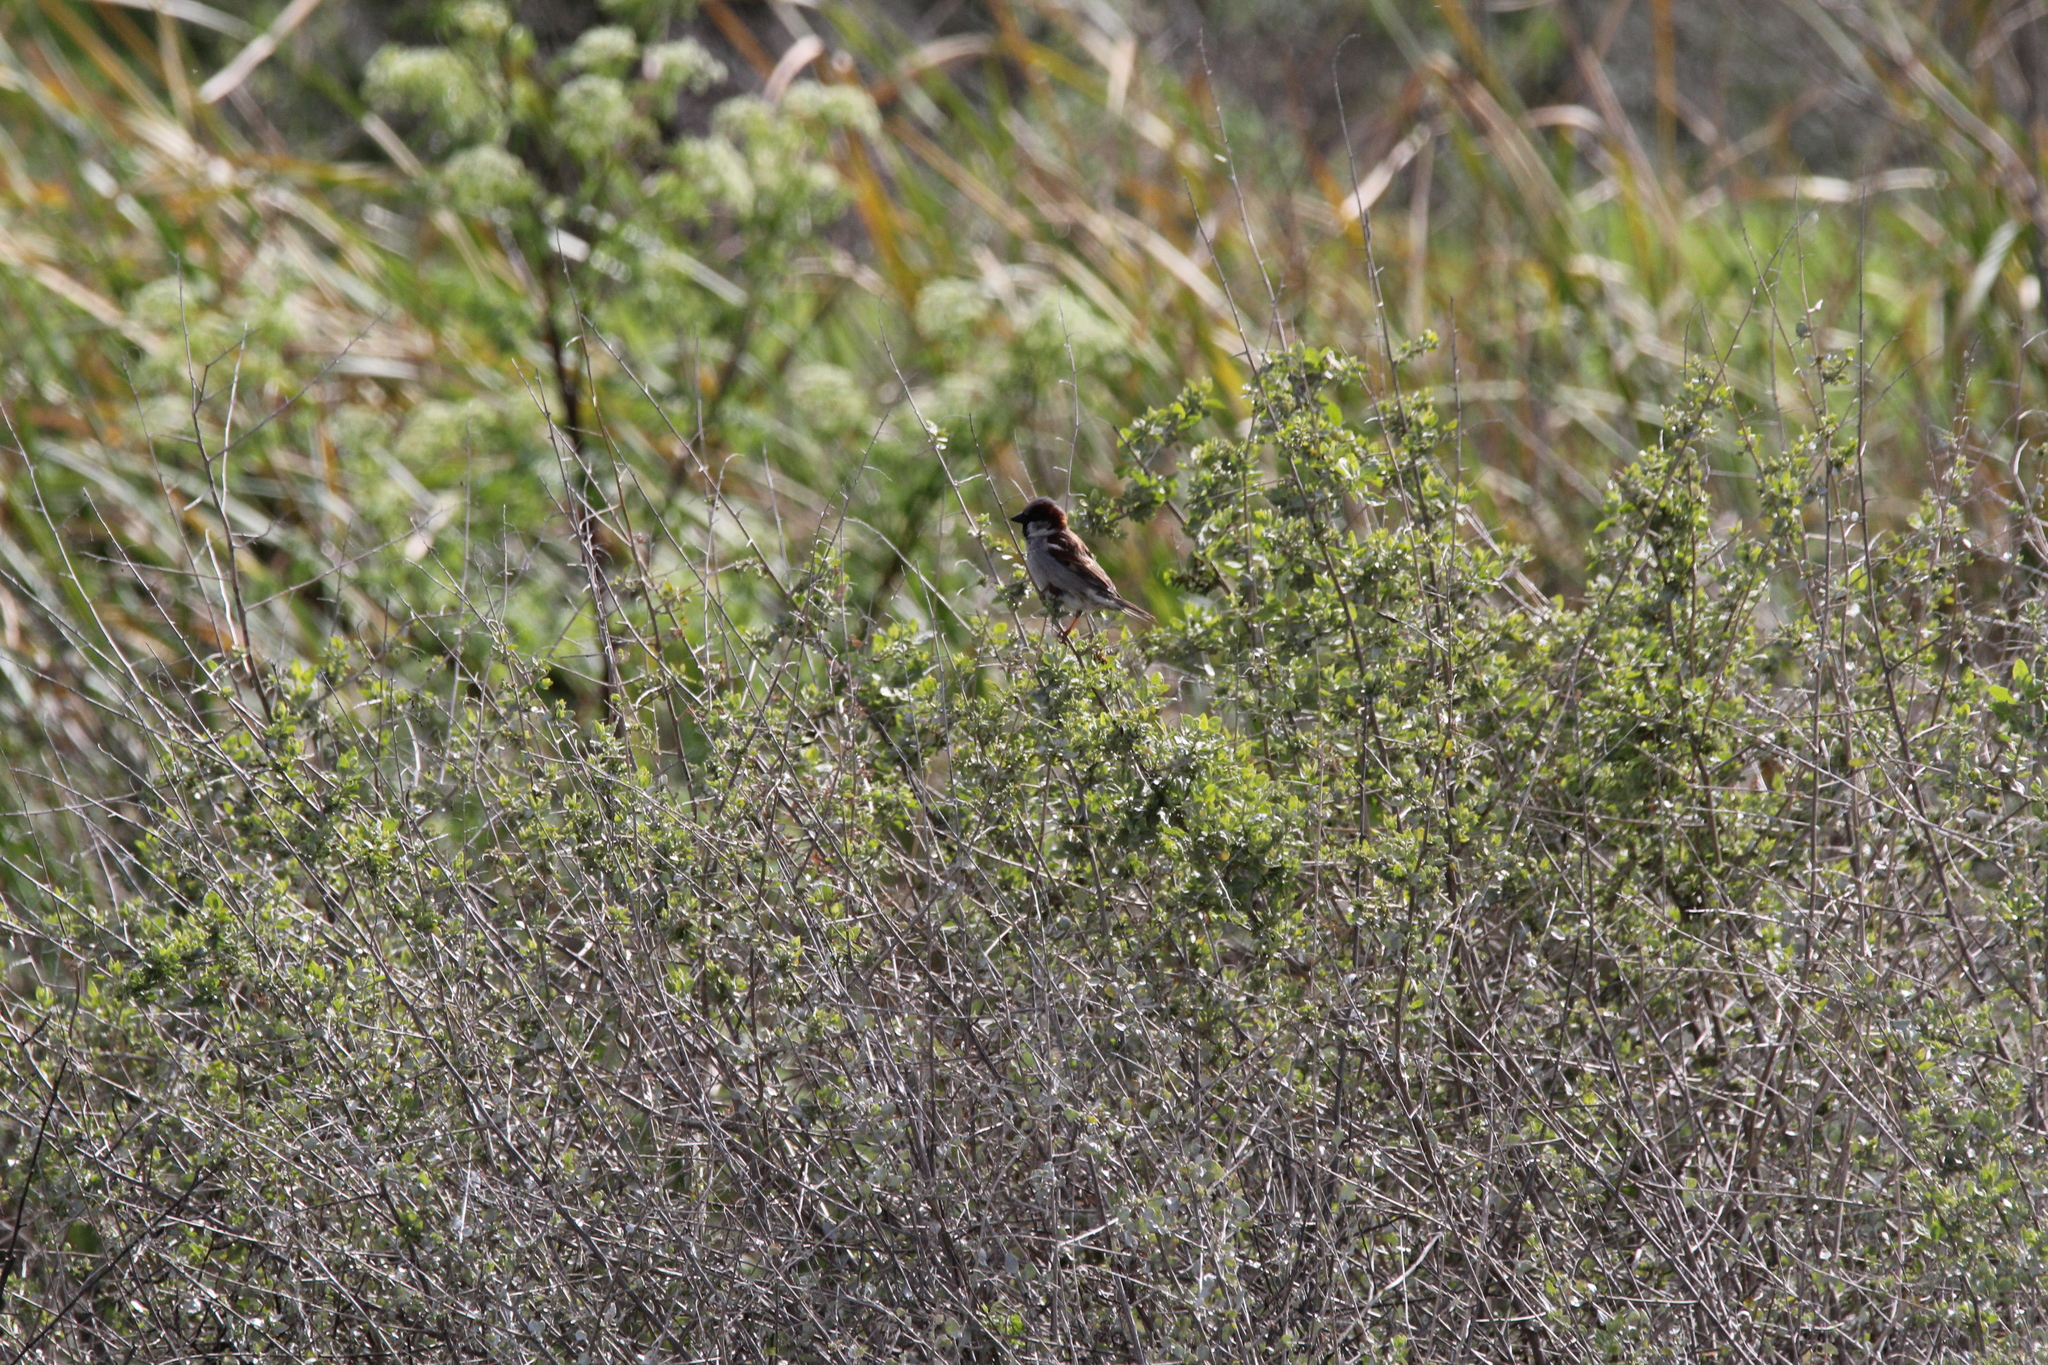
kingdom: Animalia
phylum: Chordata
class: Aves
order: Passeriformes
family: Passeridae
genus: Passer
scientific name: Passer domesticus
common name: House sparrow
